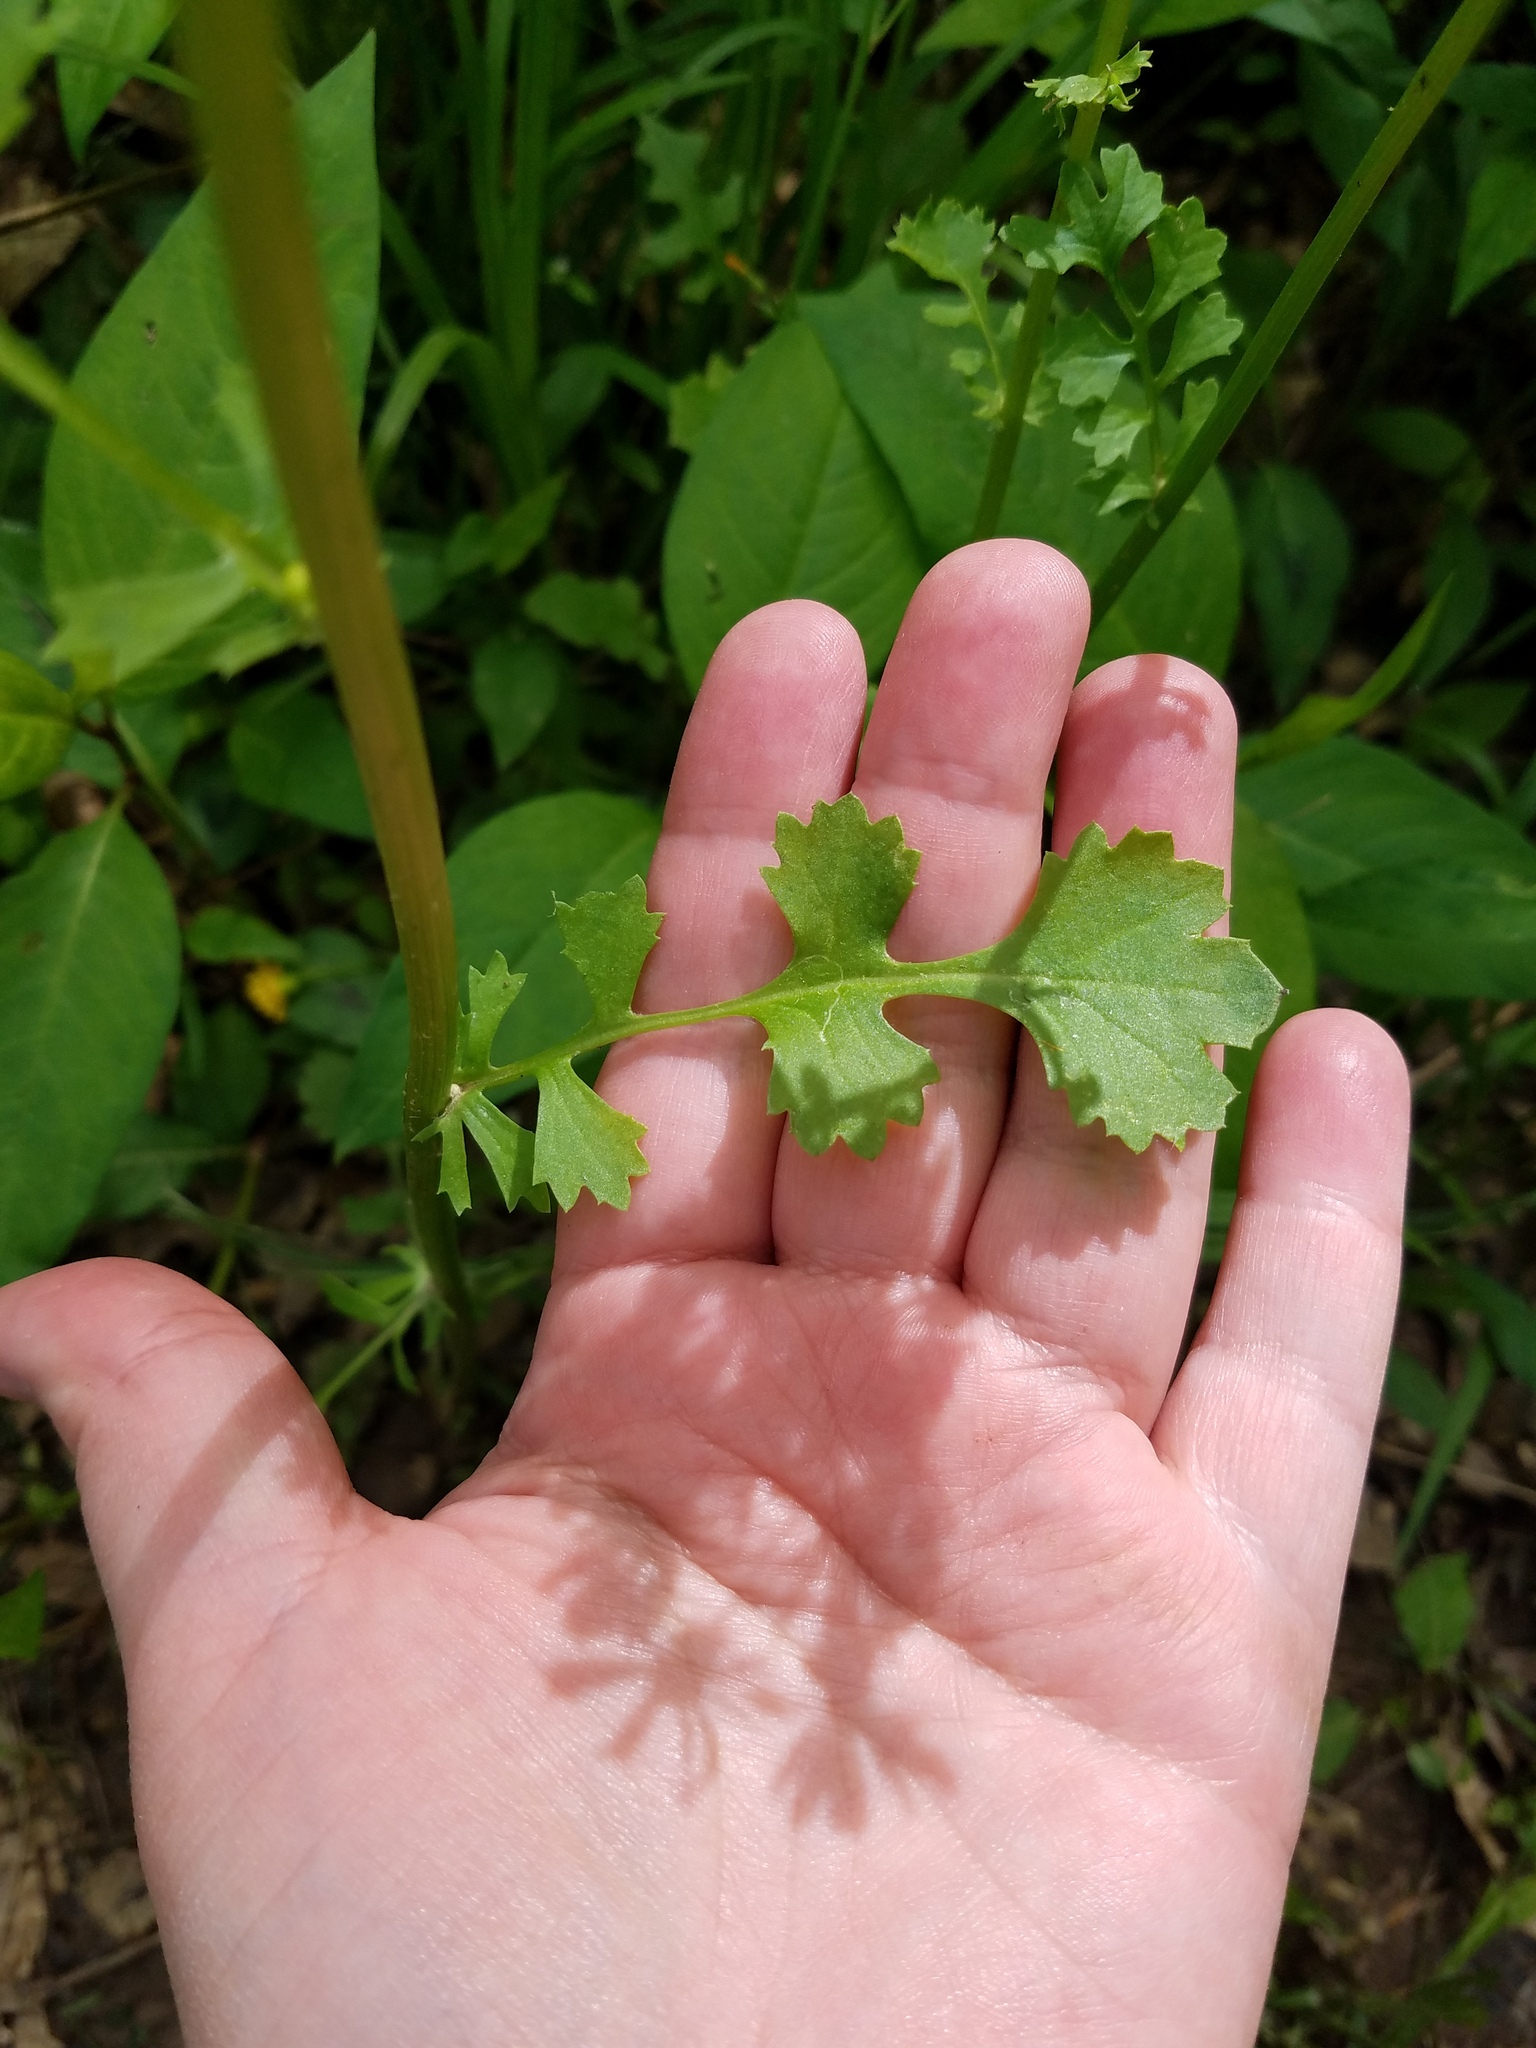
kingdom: Plantae
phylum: Tracheophyta
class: Magnoliopsida
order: Asterales
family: Asteraceae
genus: Packera
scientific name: Packera glabella
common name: Butterweed
